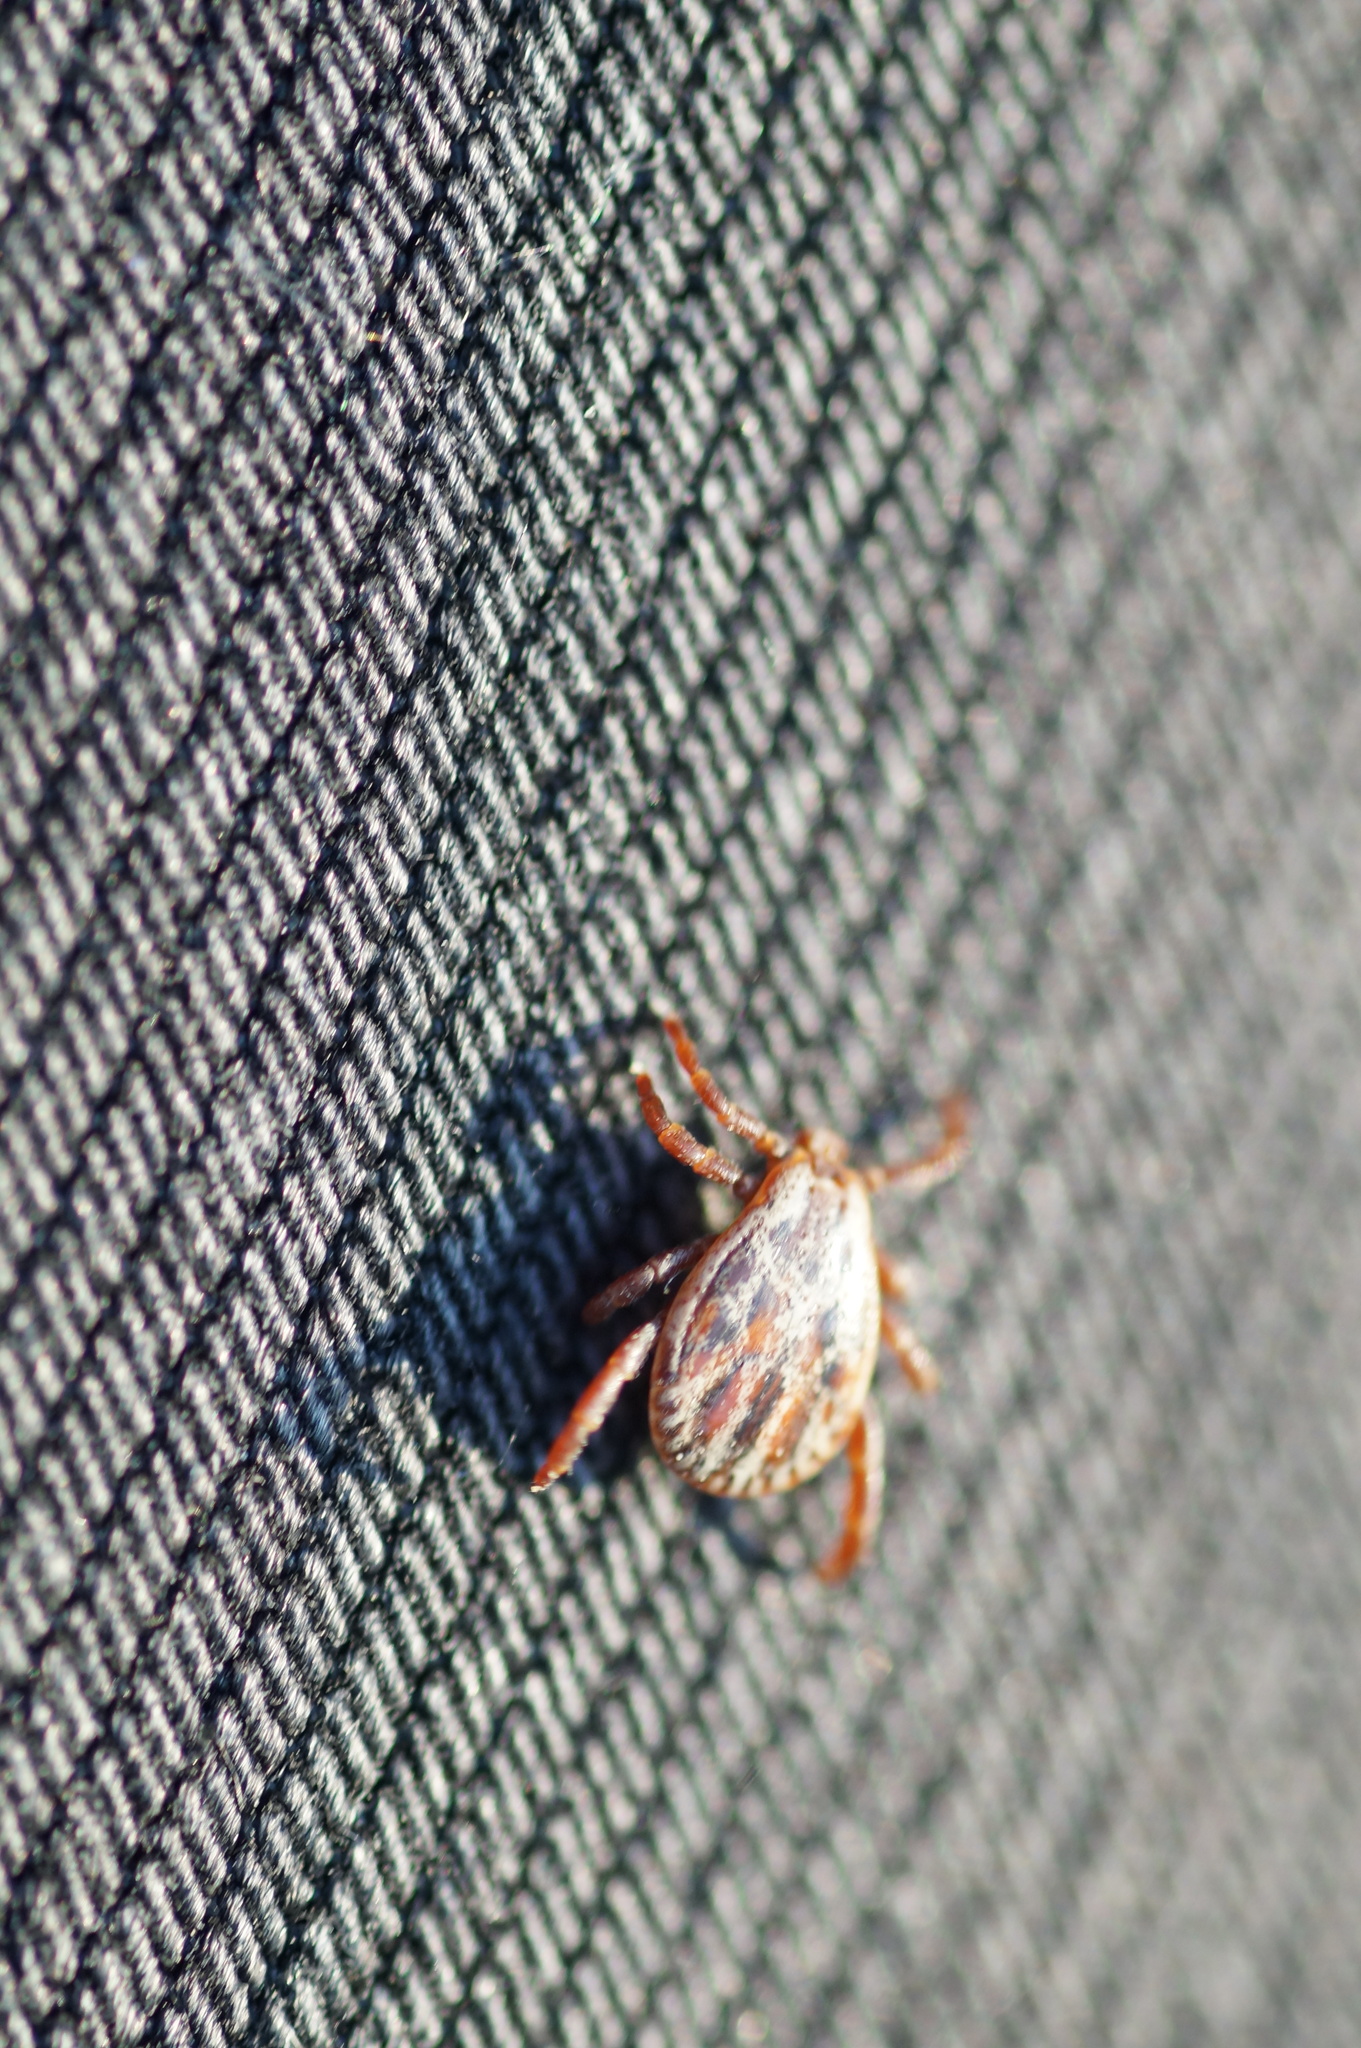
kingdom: Animalia
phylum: Arthropoda
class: Arachnida
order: Ixodida
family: Ixodidae
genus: Dermacentor
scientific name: Dermacentor reticulatus
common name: Ornate cow tick
